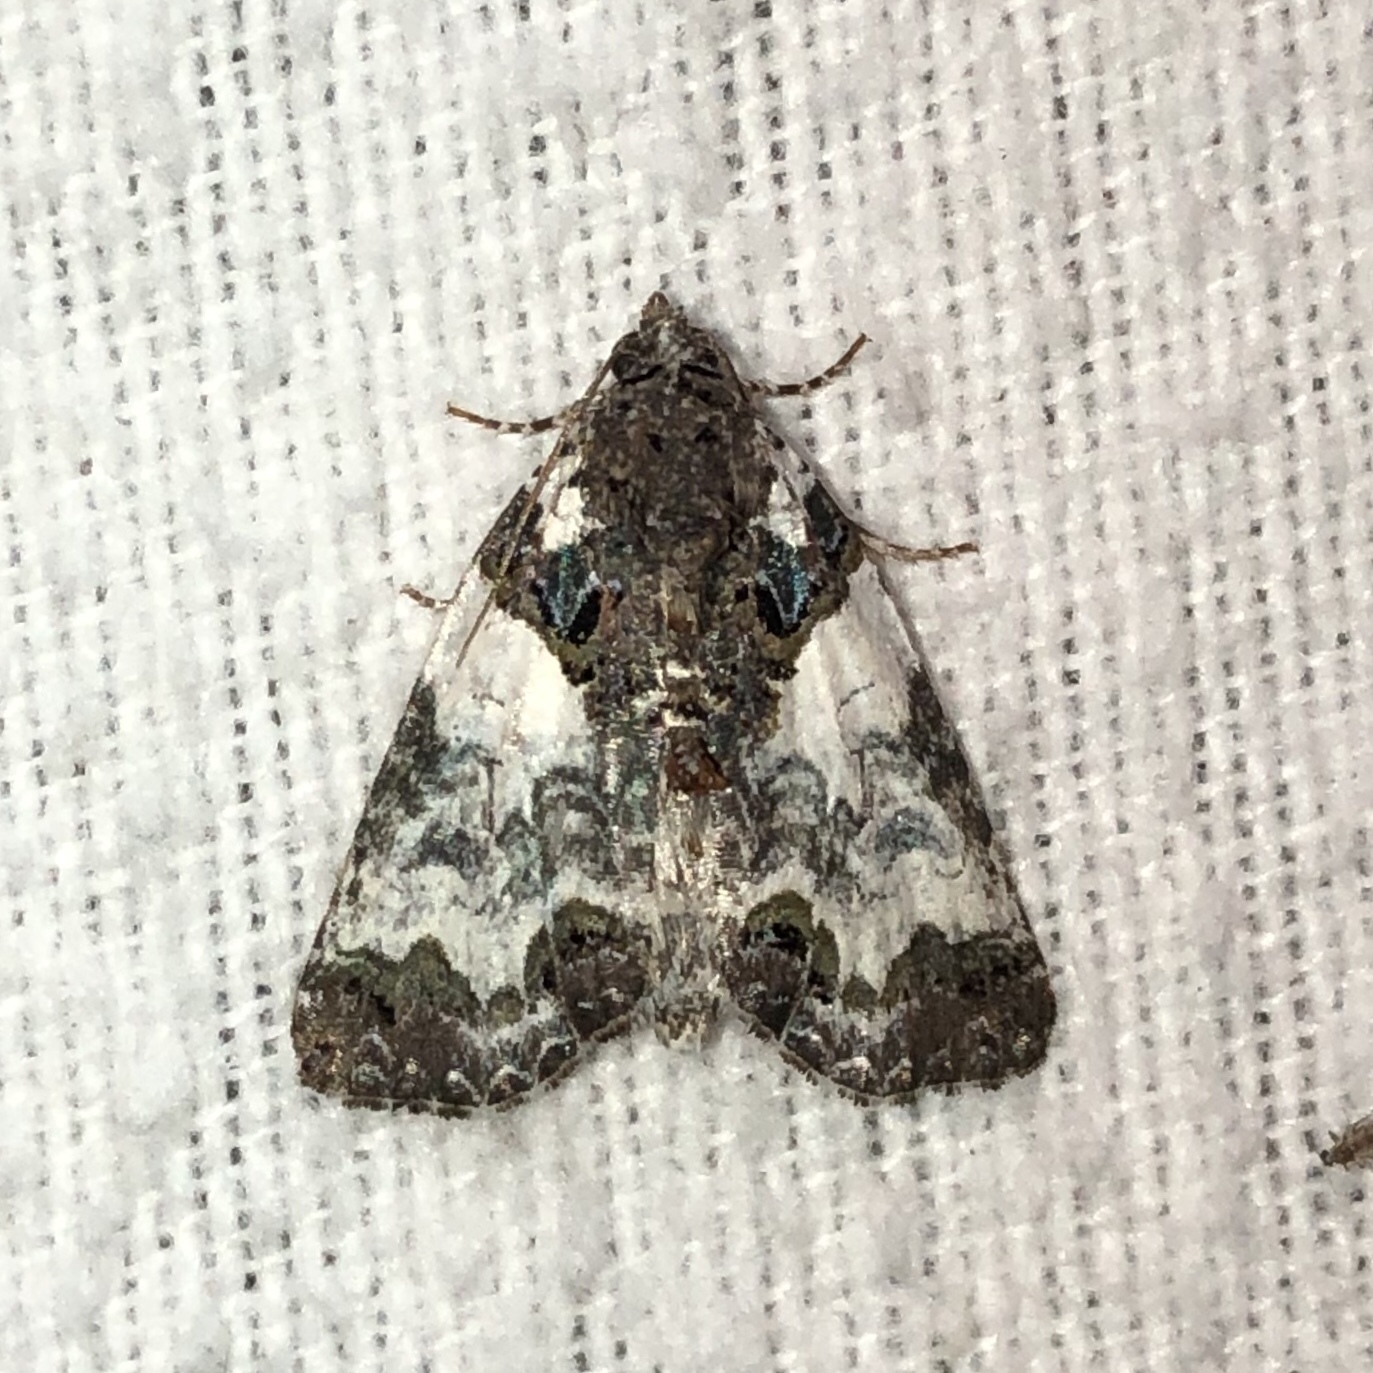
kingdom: Animalia
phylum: Arthropoda
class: Insecta
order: Lepidoptera
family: Noctuidae
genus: Cerma
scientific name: Cerma cerintha
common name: Tufted bird-dropping moth
